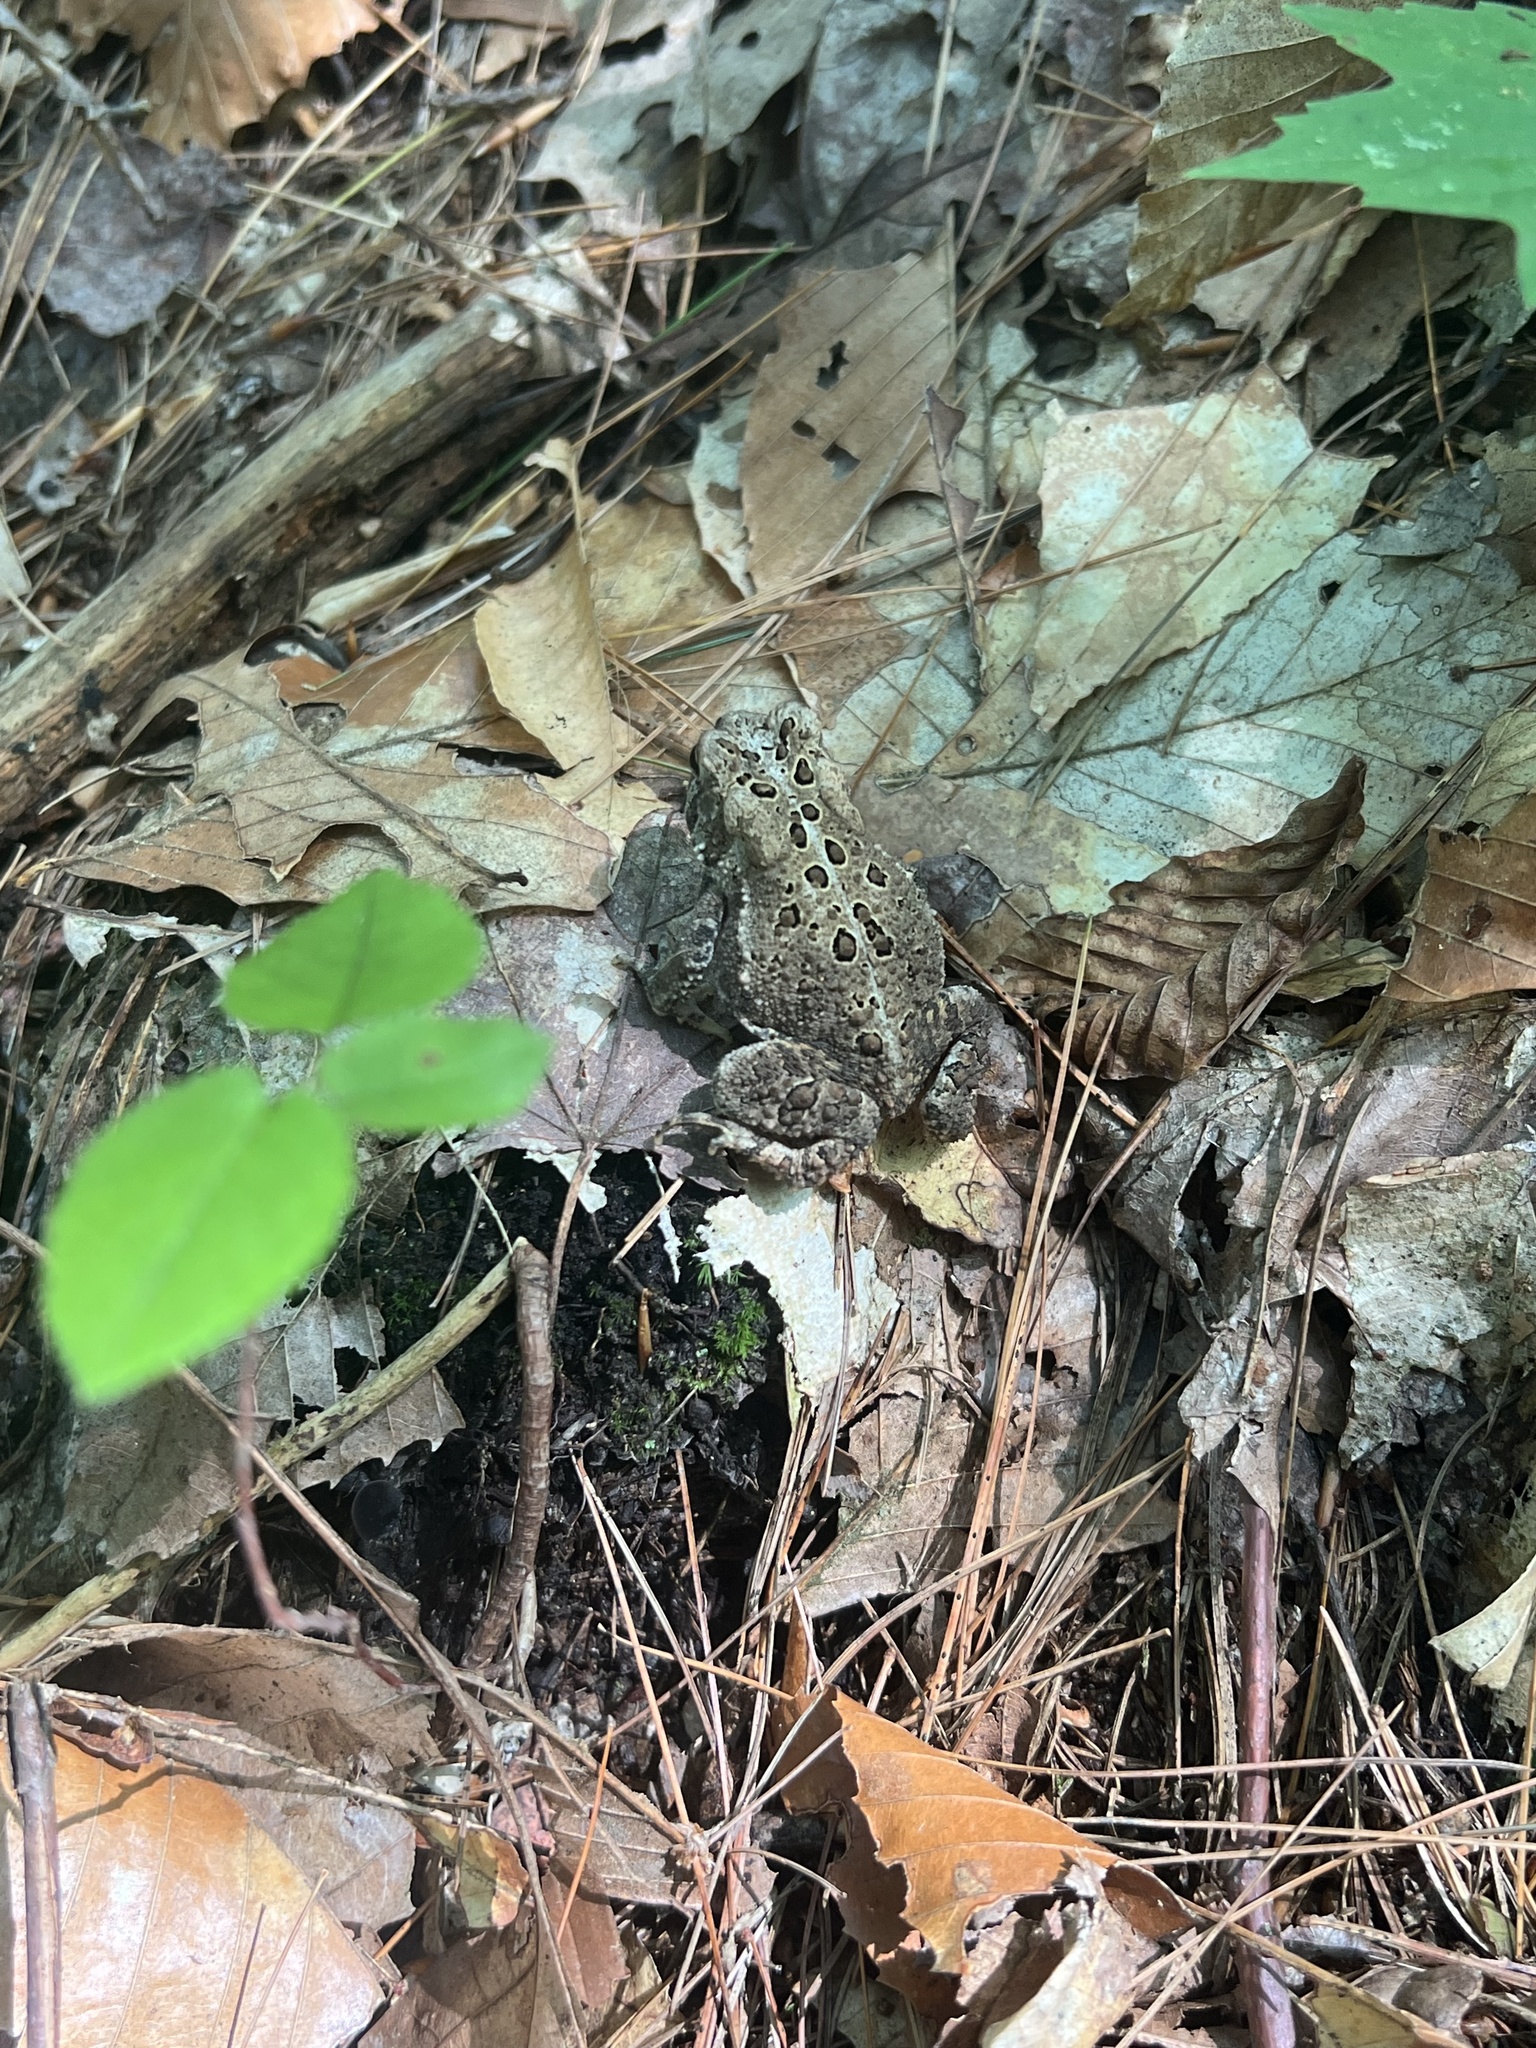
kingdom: Animalia
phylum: Chordata
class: Amphibia
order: Anura
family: Bufonidae
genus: Anaxyrus
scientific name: Anaxyrus americanus
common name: American toad
